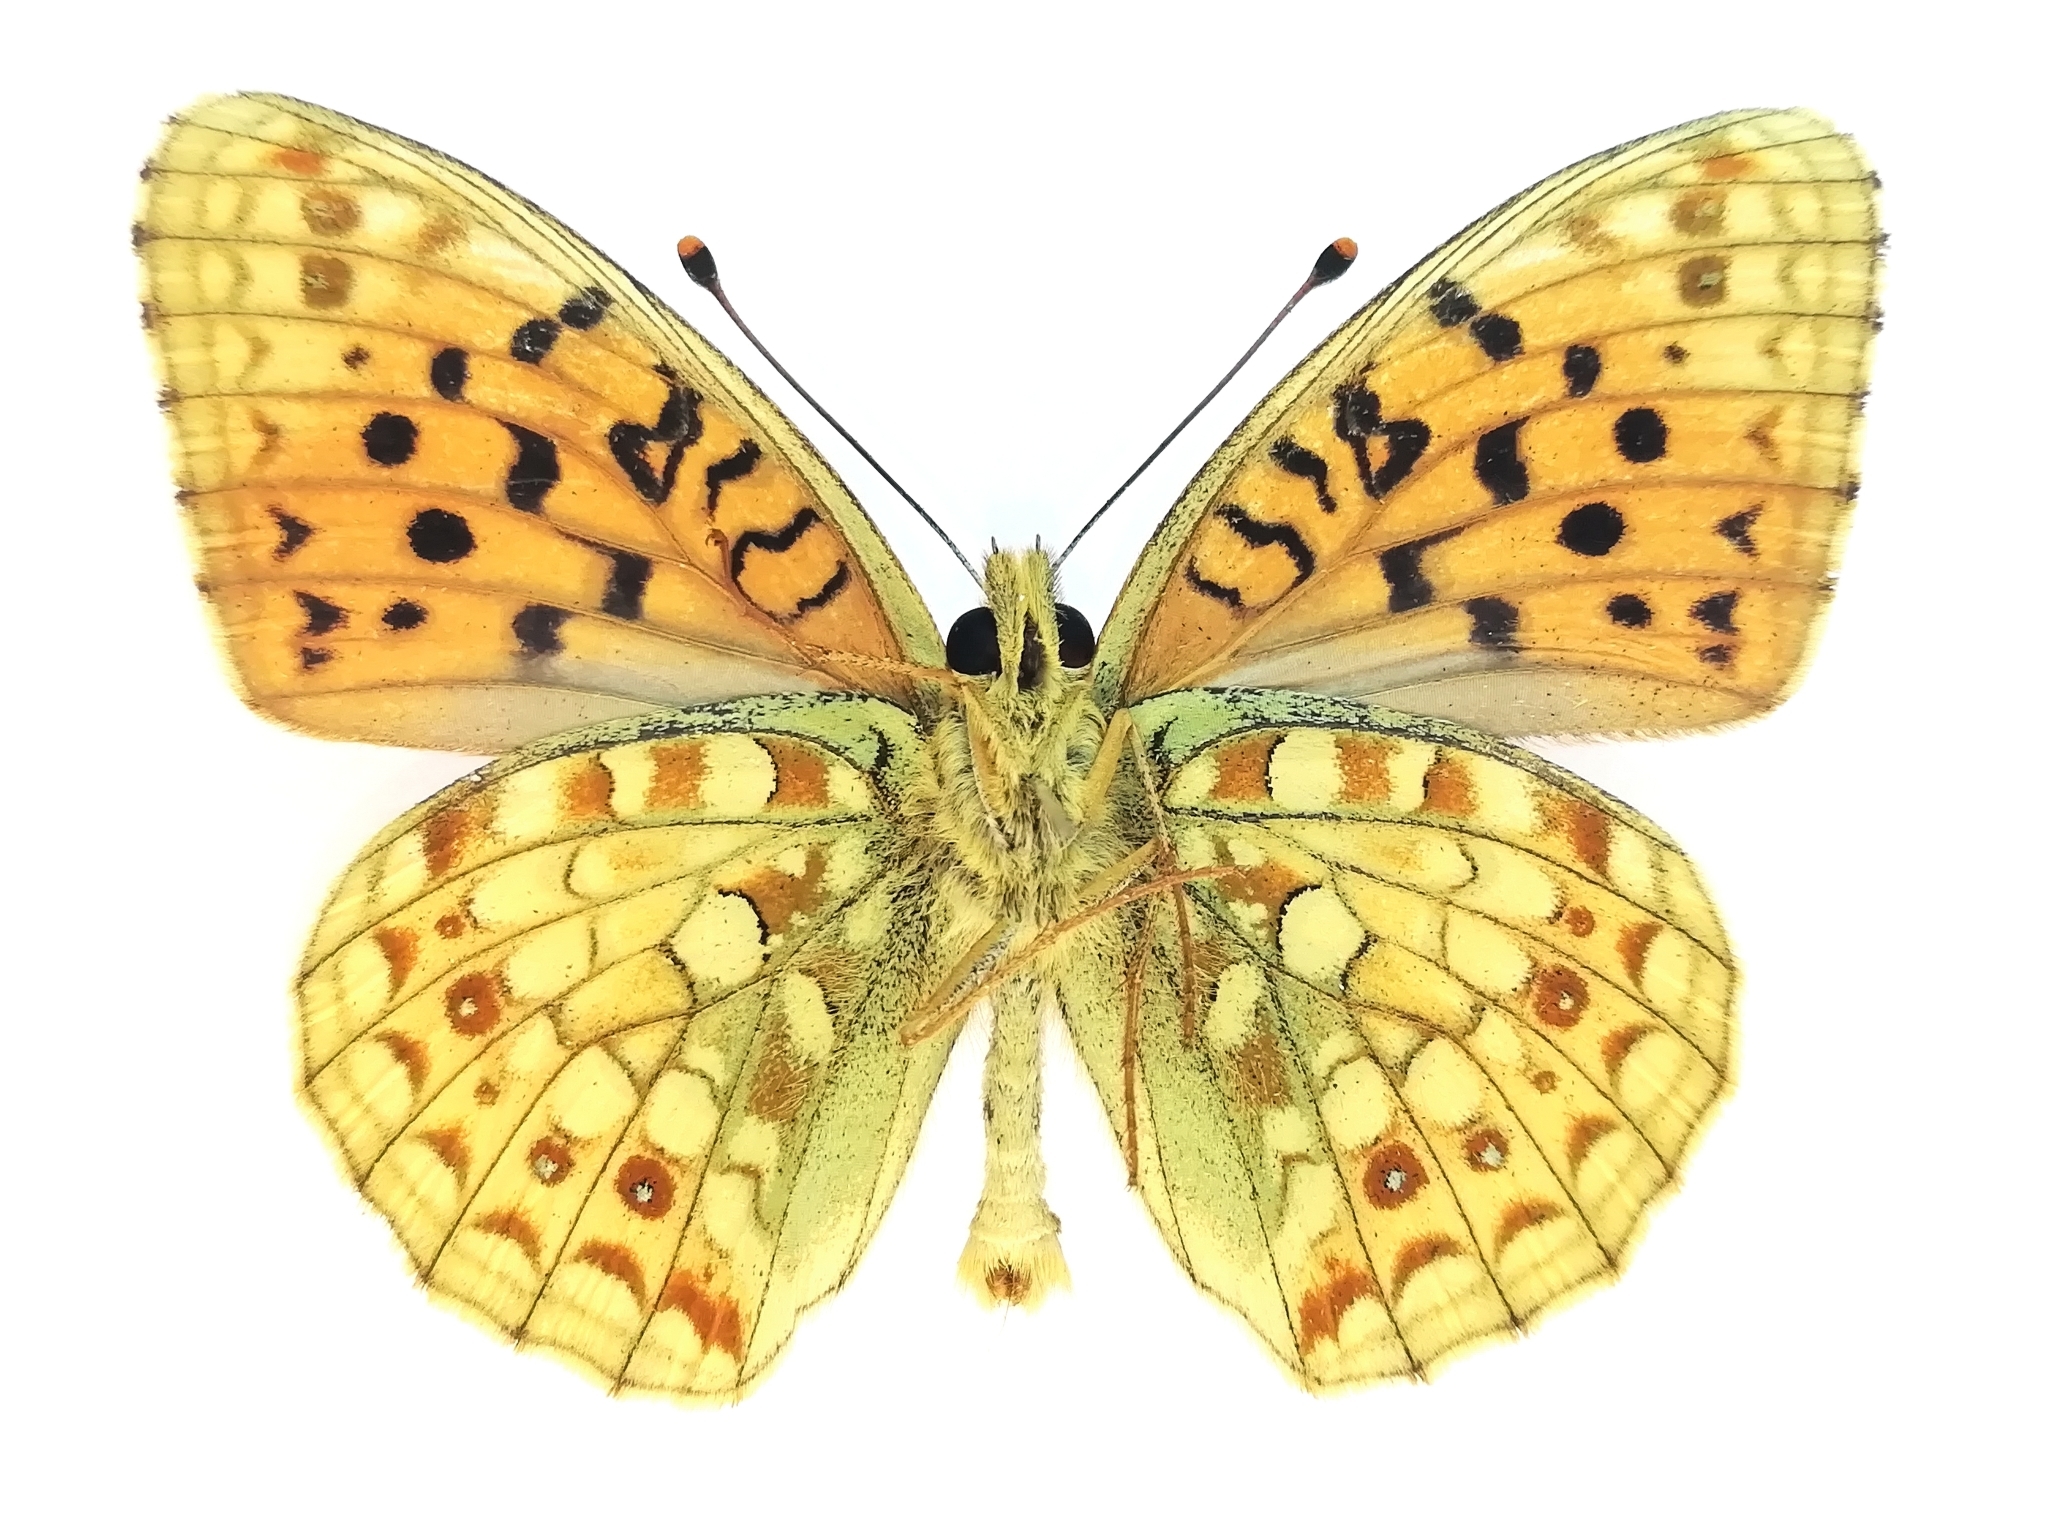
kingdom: Animalia
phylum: Arthropoda
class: Insecta
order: Lepidoptera
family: Nymphalidae
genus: Fabriciana
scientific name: Fabriciana niobe
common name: Niobe fritillary
